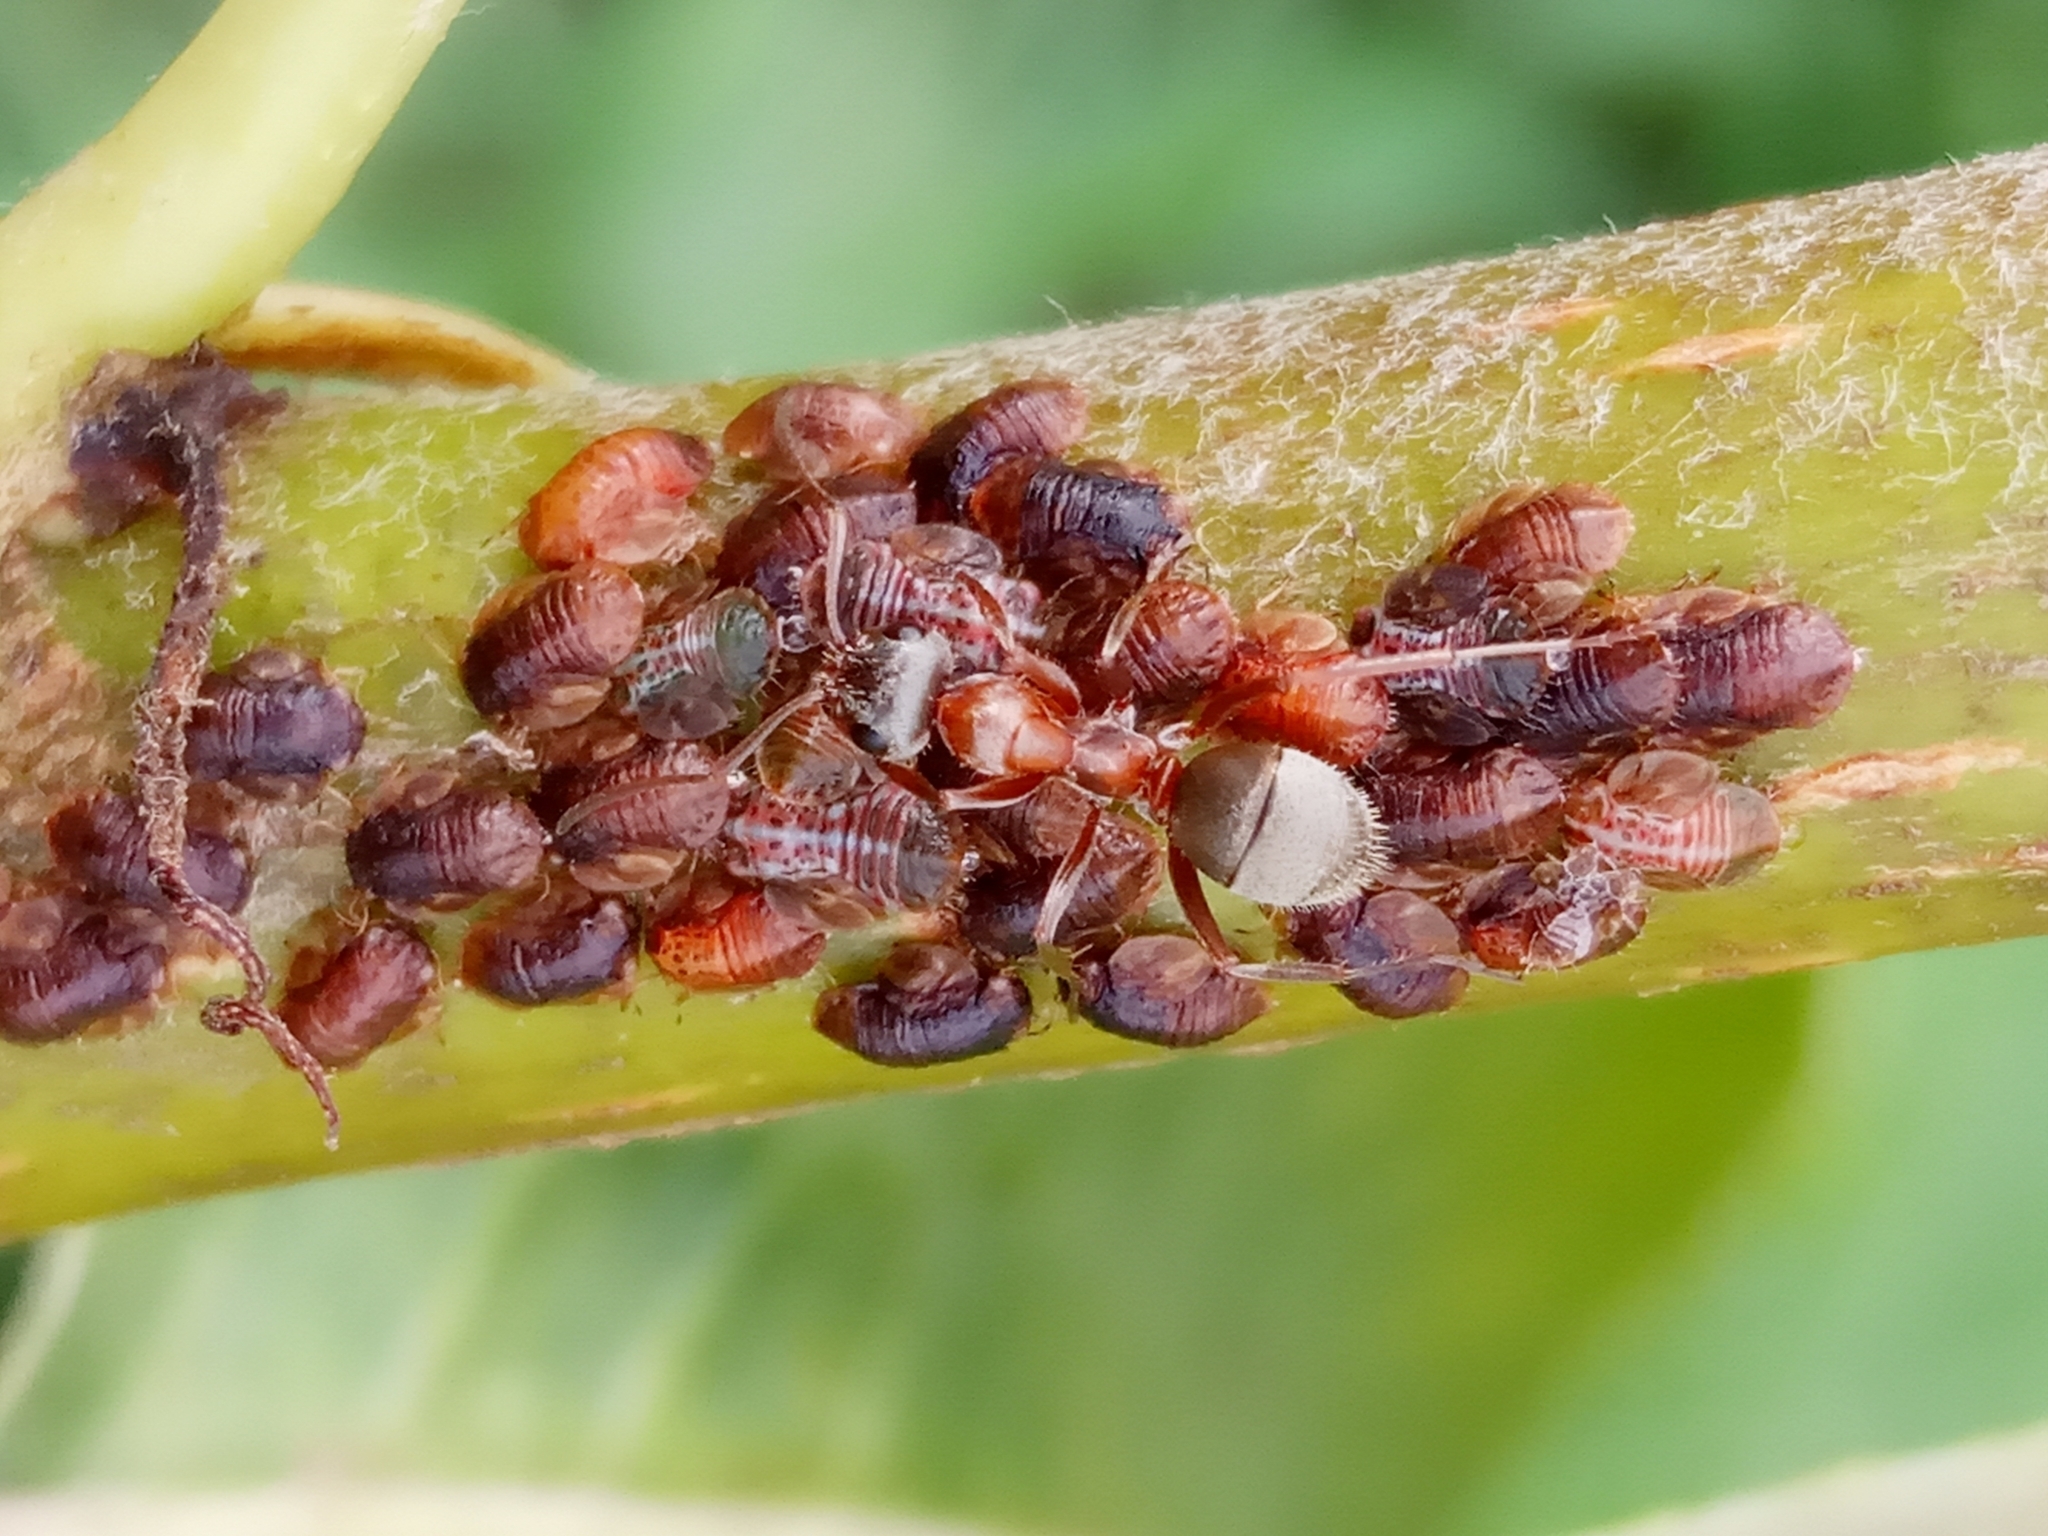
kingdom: Animalia
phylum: Arthropoda
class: Insecta
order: Hymenoptera
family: Formicidae
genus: Formica
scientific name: Formica
